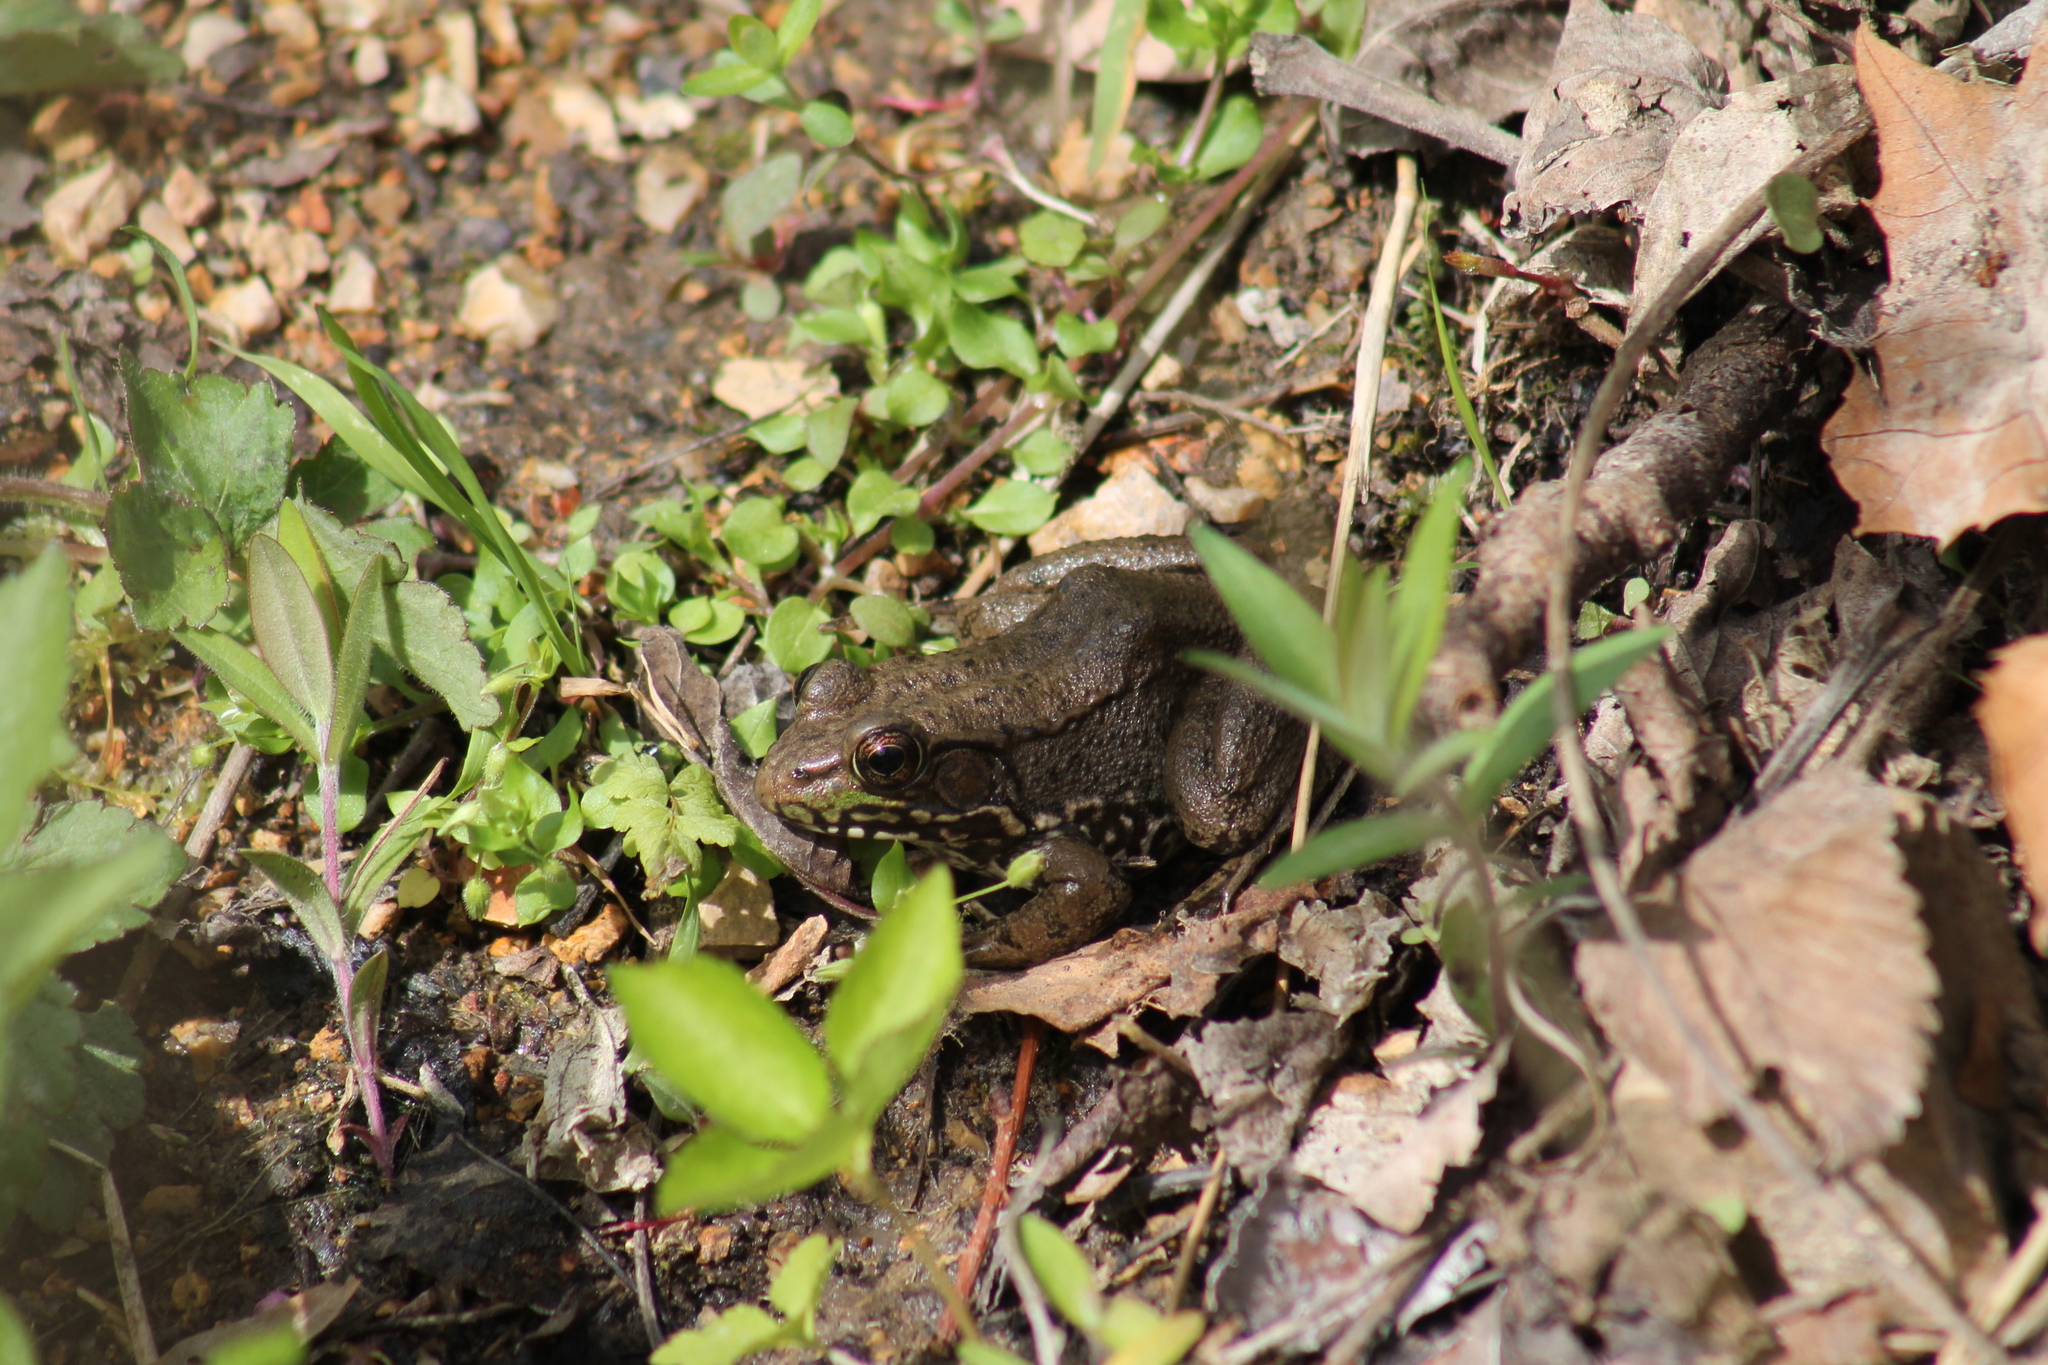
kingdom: Animalia
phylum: Chordata
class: Amphibia
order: Anura
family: Ranidae
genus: Lithobates
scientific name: Lithobates clamitans
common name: Green frog
